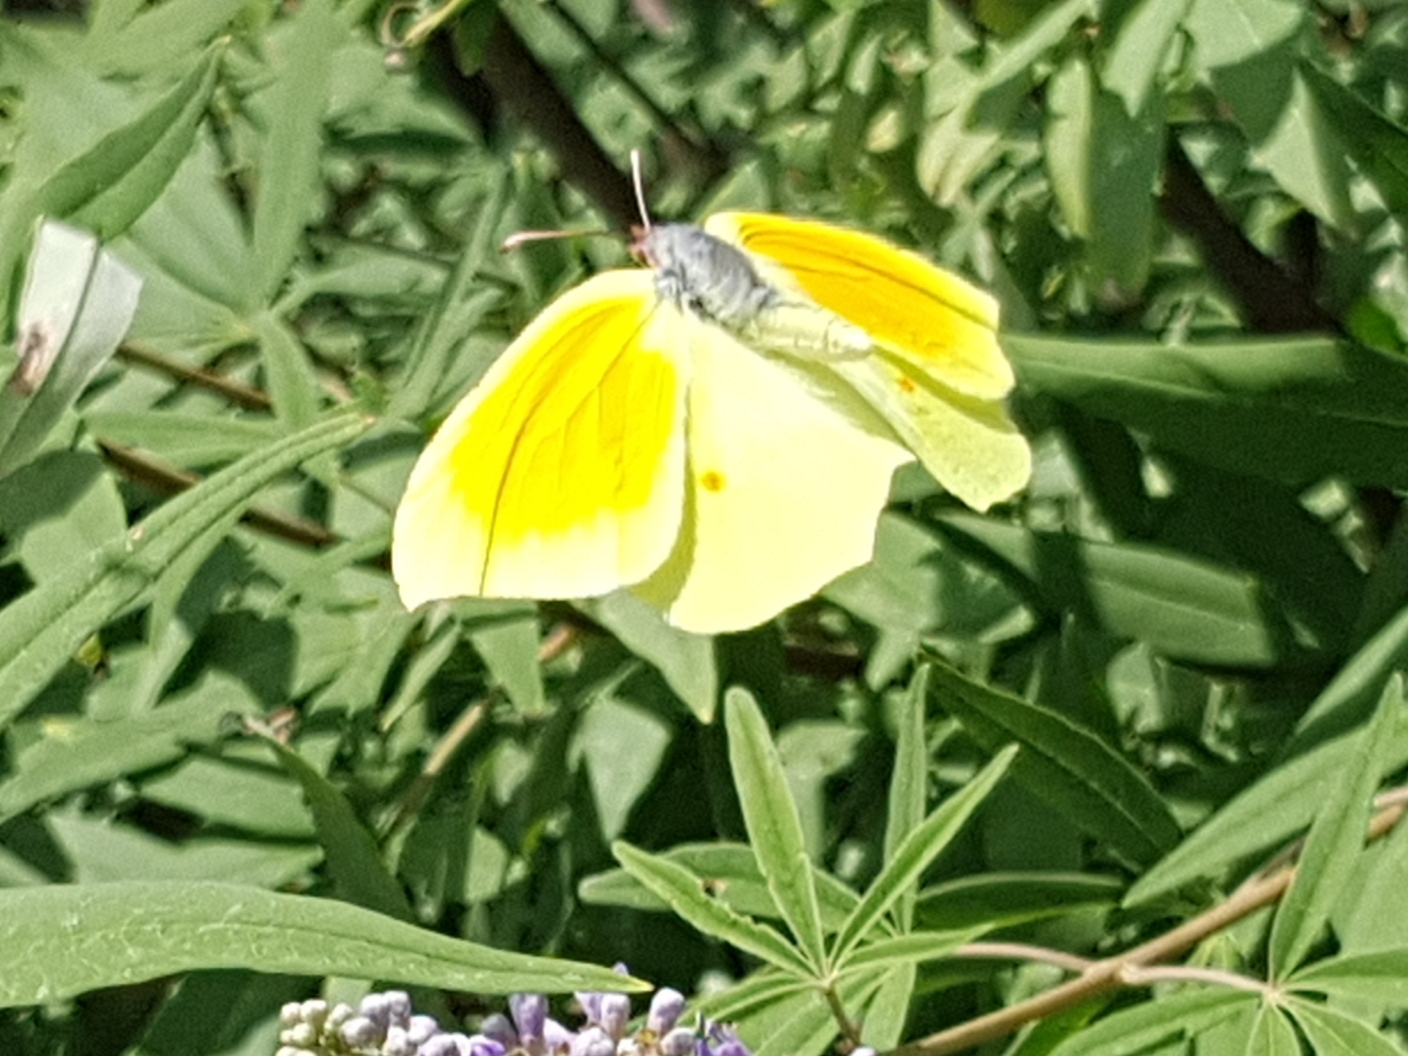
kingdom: Animalia
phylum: Arthropoda
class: Insecta
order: Lepidoptera
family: Pieridae
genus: Gonepteryx
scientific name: Gonepteryx cleopatra
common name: Cleopatra
